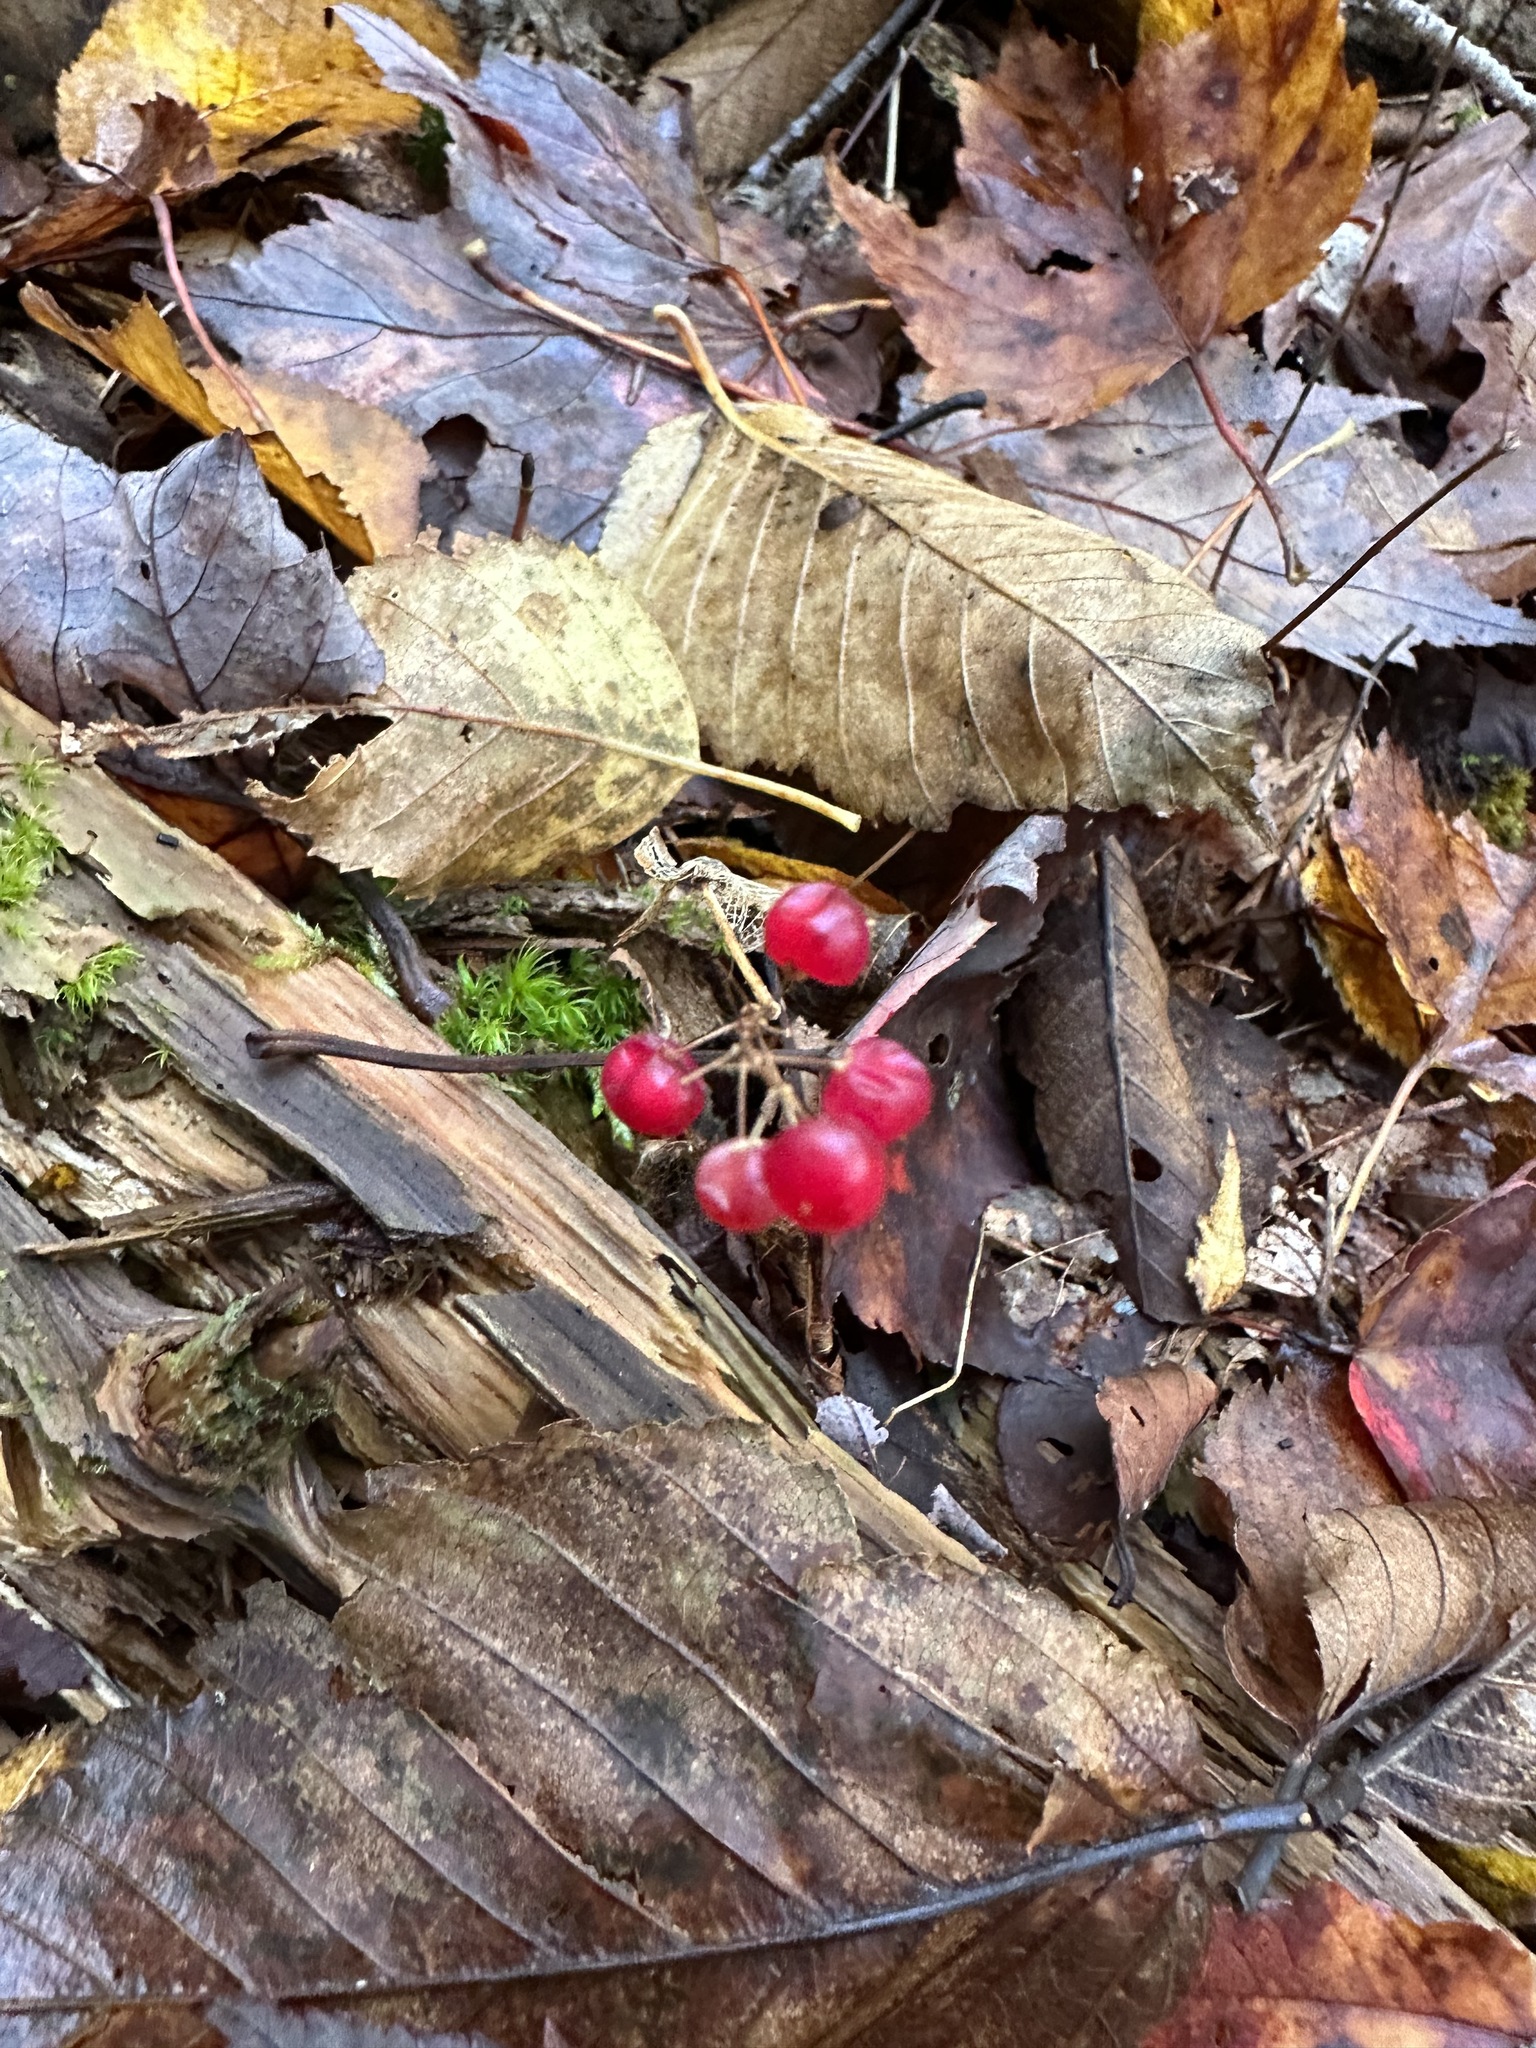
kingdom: Plantae
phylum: Tracheophyta
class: Liliopsida
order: Asparagales
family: Asparagaceae
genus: Maianthemum
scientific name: Maianthemum canadense
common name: False lily-of-the-valley
